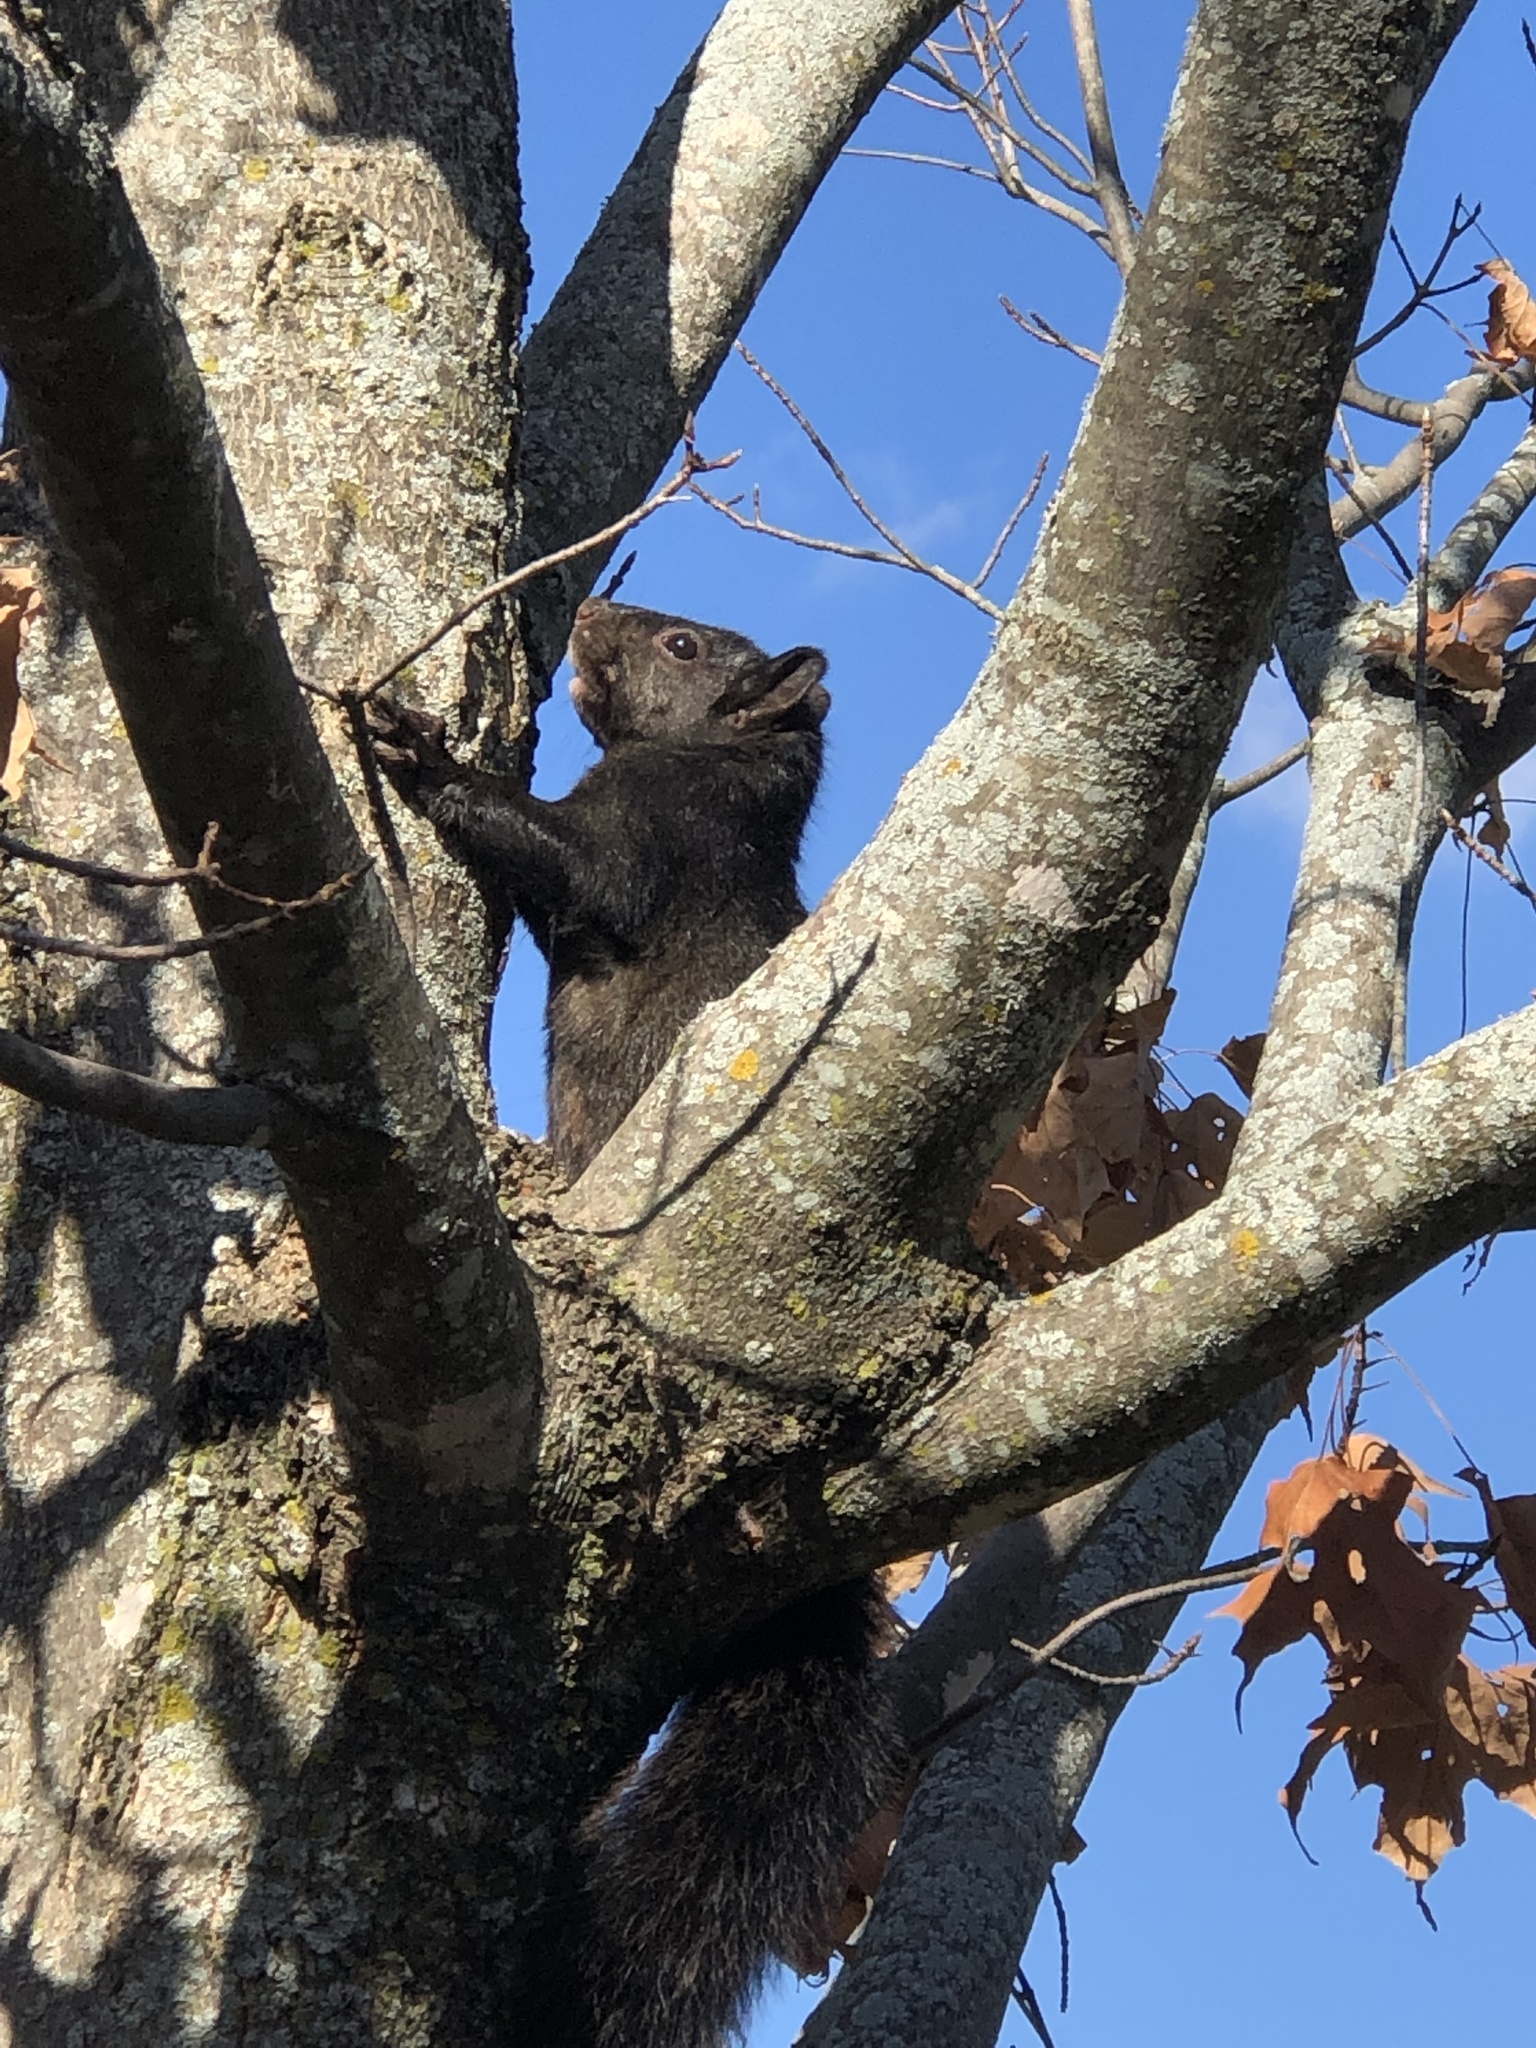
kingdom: Animalia
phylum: Chordata
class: Mammalia
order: Rodentia
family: Sciuridae
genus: Sciurus
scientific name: Sciurus carolinensis
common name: Eastern gray squirrel
